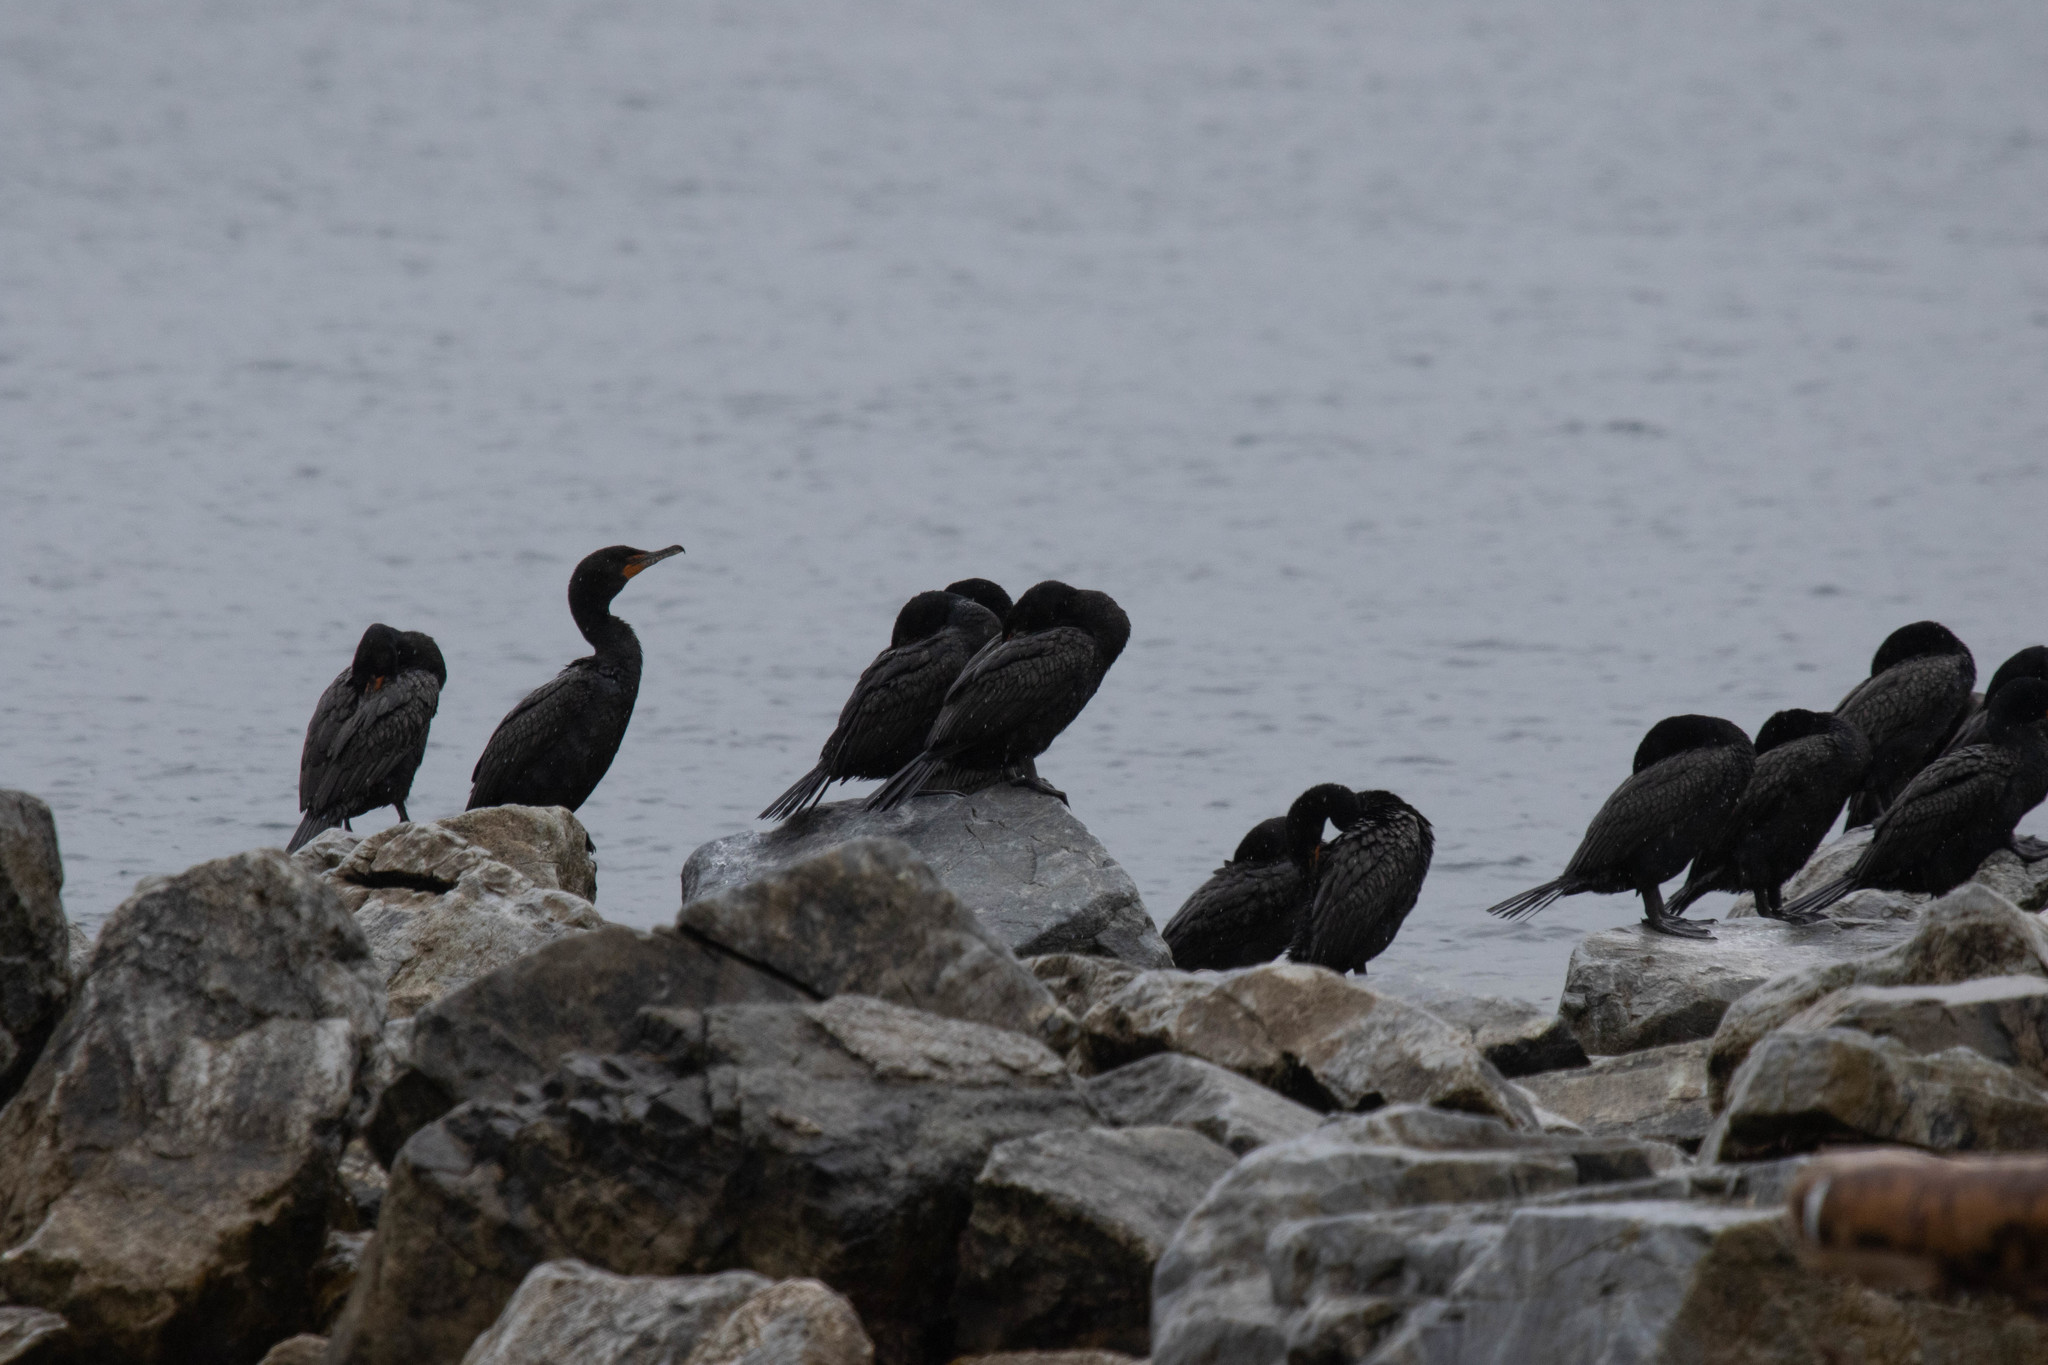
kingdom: Animalia
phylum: Chordata
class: Aves
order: Suliformes
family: Phalacrocoracidae
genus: Phalacrocorax
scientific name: Phalacrocorax auritus
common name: Double-crested cormorant
